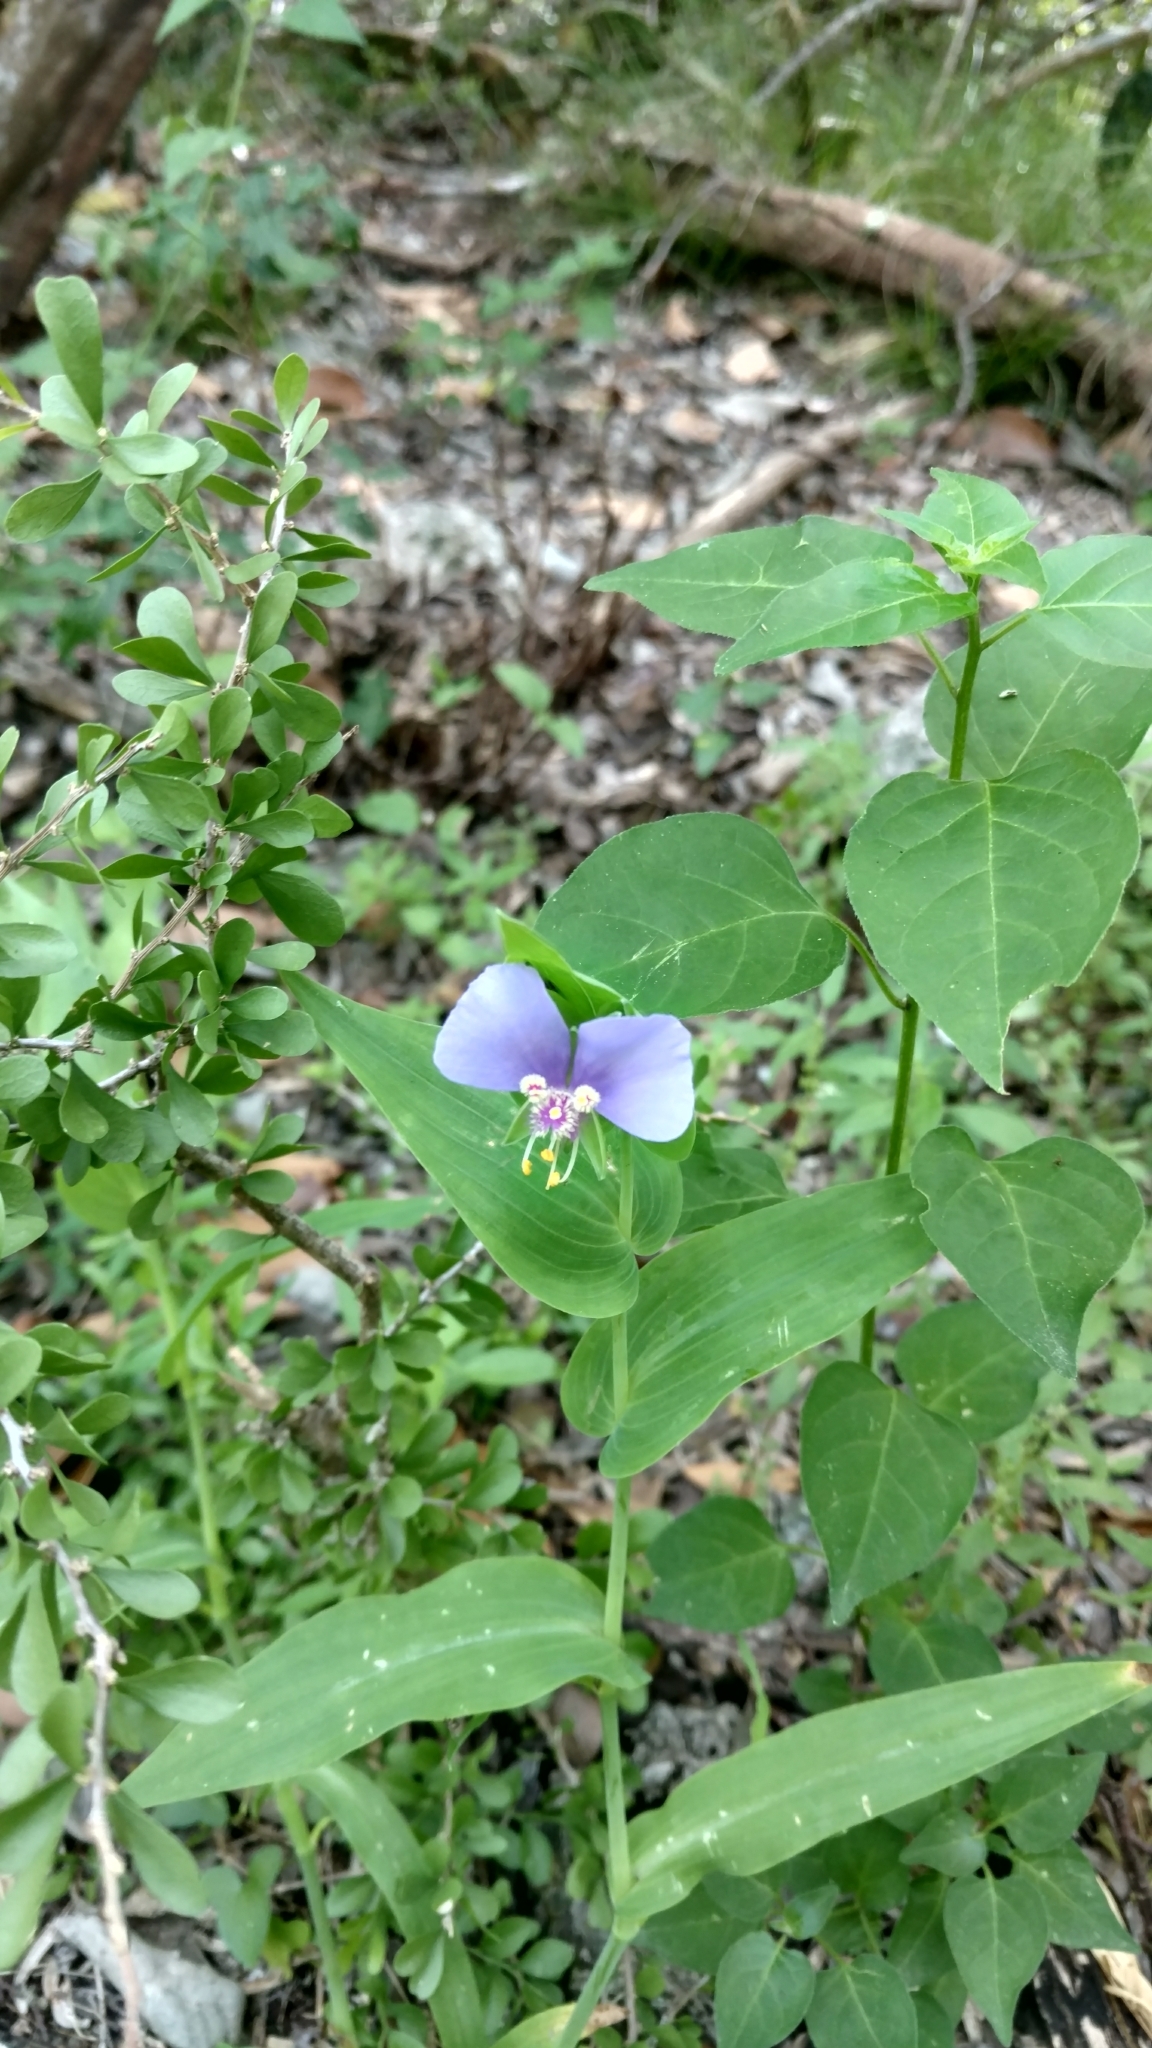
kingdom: Plantae
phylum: Tracheophyta
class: Liliopsida
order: Commelinales
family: Commelinaceae
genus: Tinantia
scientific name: Tinantia anomala
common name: False dayflower
